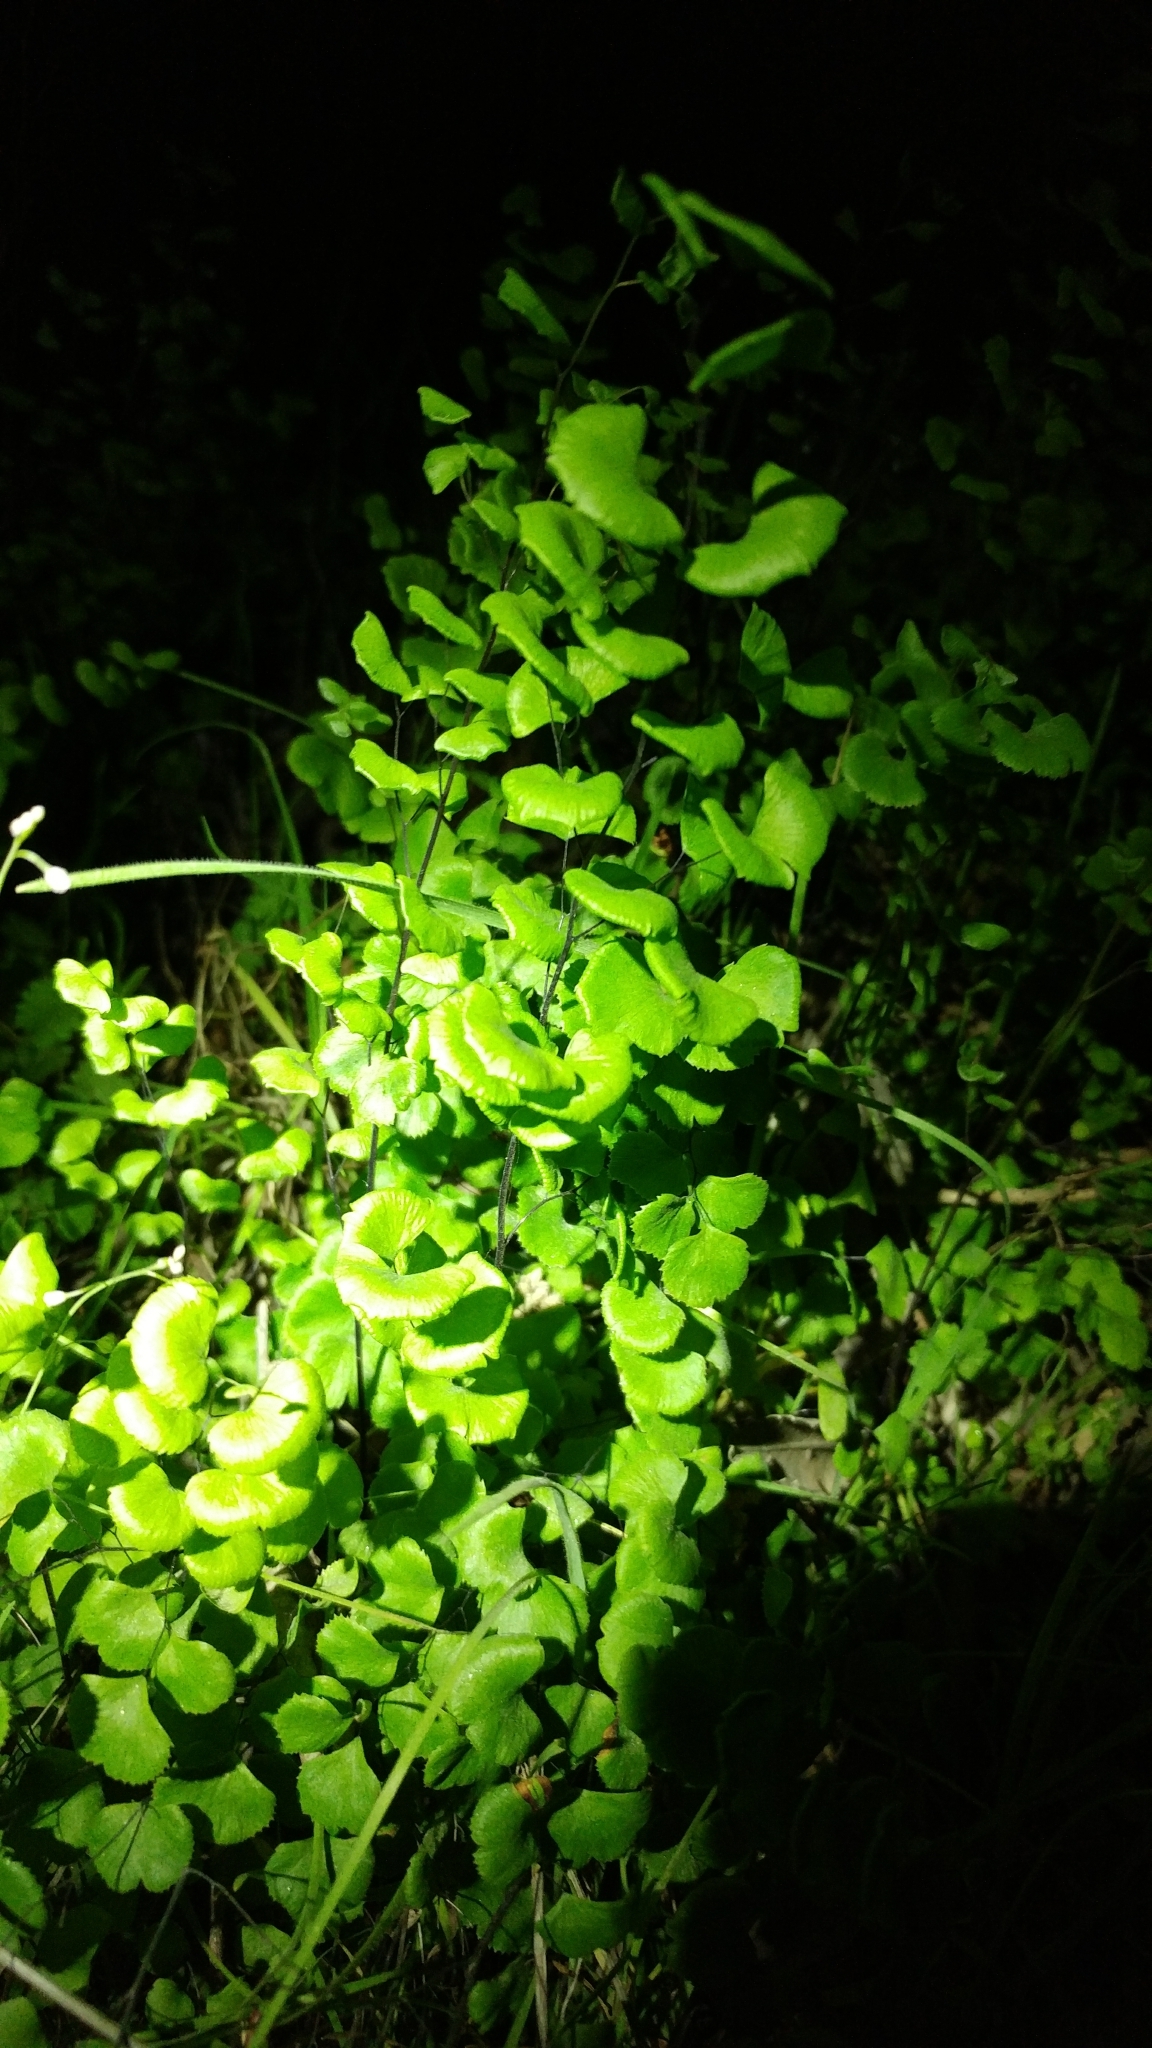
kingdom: Plantae
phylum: Tracheophyta
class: Polypodiopsida
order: Polypodiales
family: Pteridaceae
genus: Adiantum
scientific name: Adiantum jordanii
